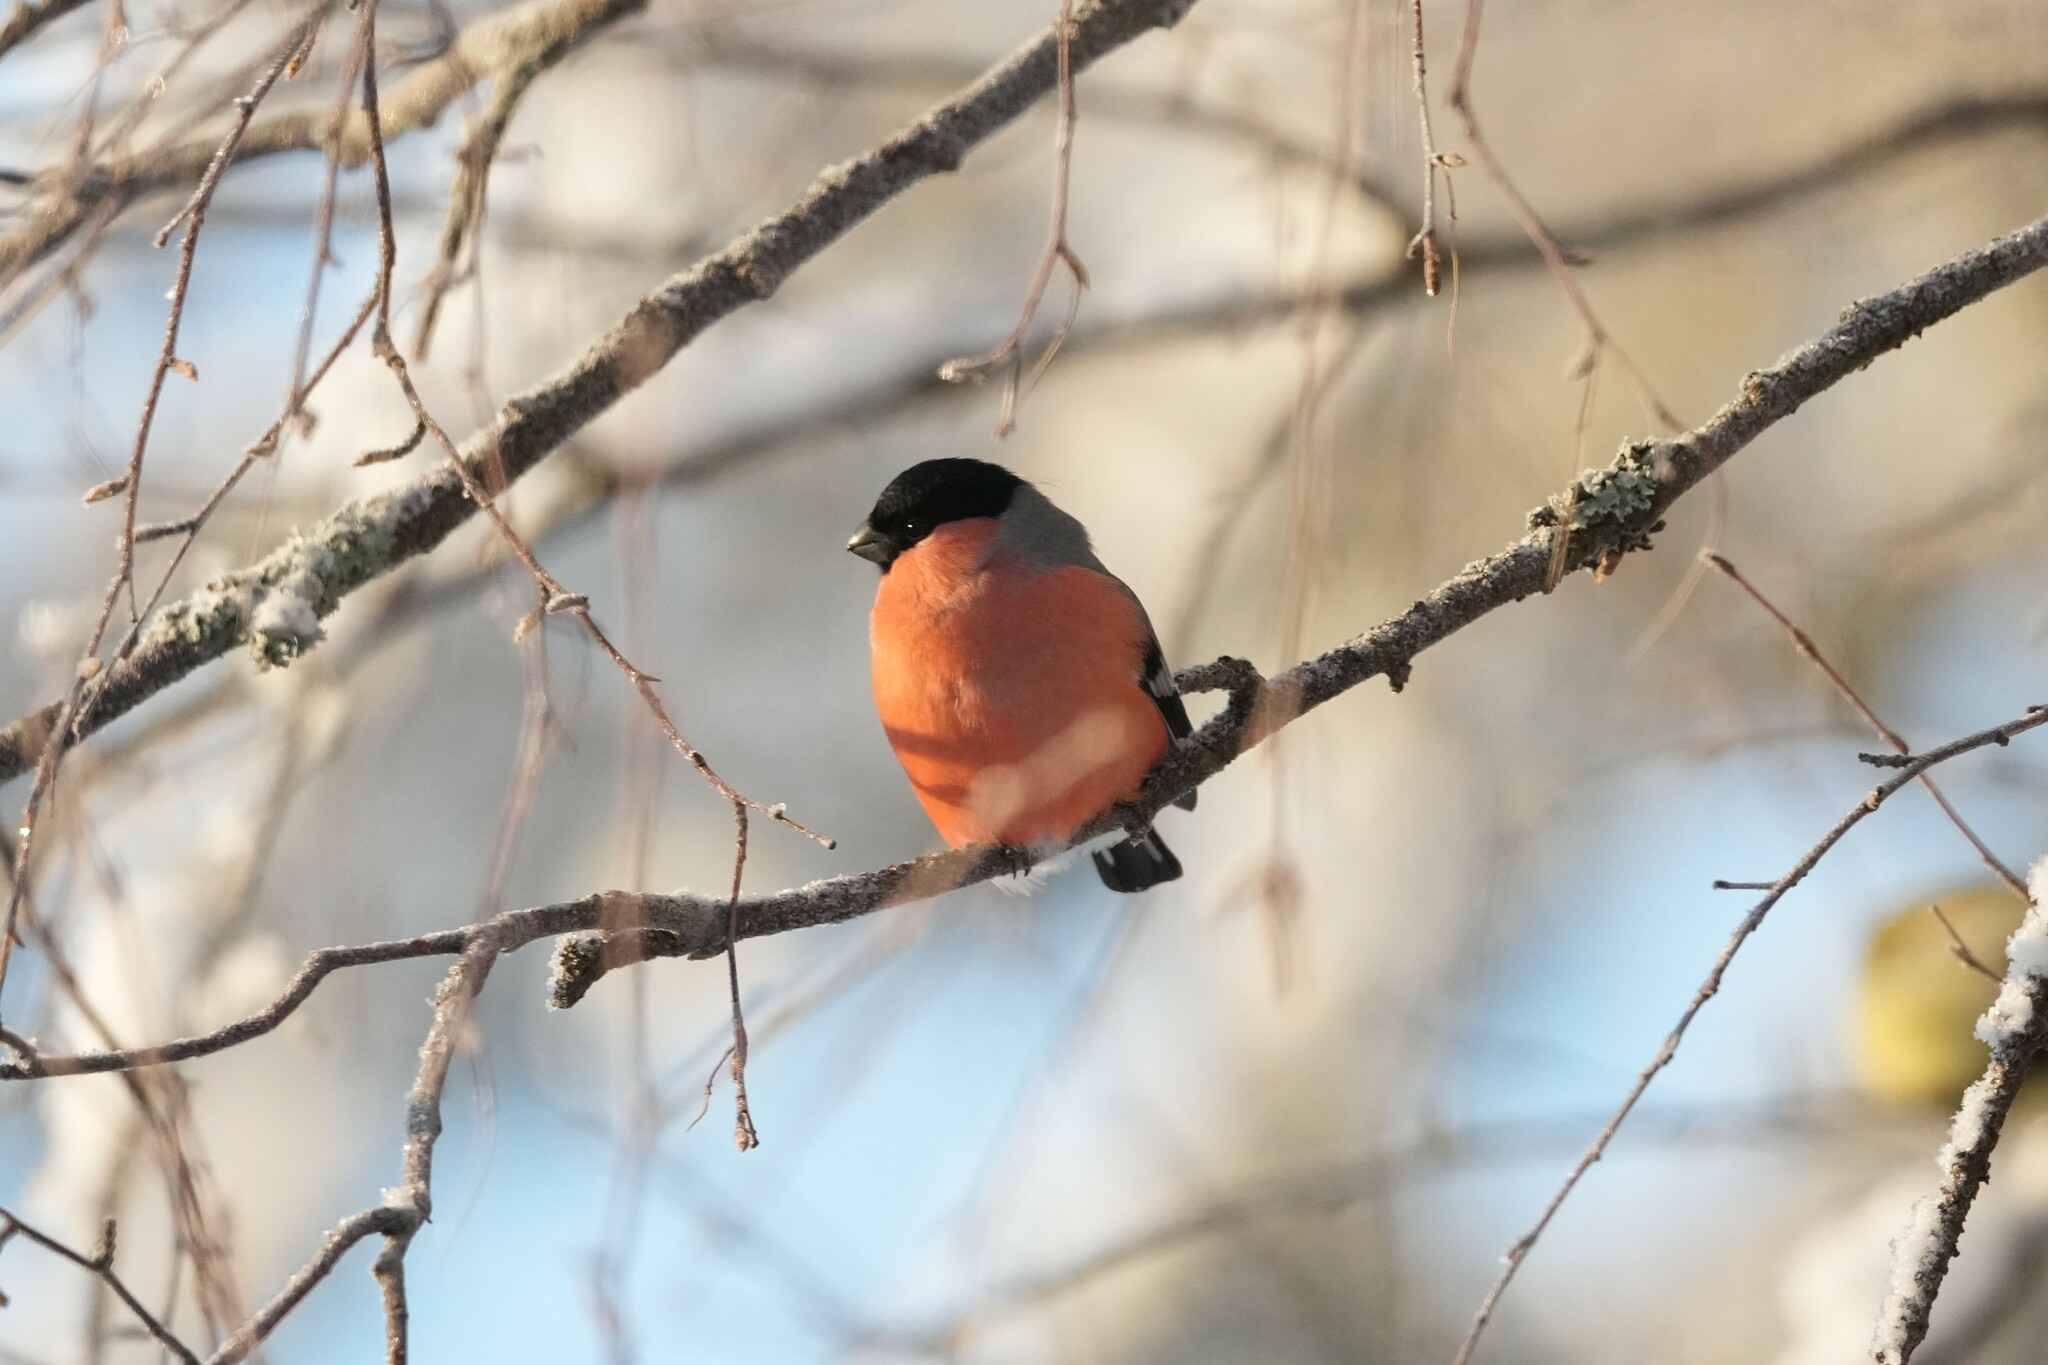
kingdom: Animalia
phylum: Chordata
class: Aves
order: Passeriformes
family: Fringillidae
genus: Pyrrhula
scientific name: Pyrrhula pyrrhula
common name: Eurasian bullfinch
